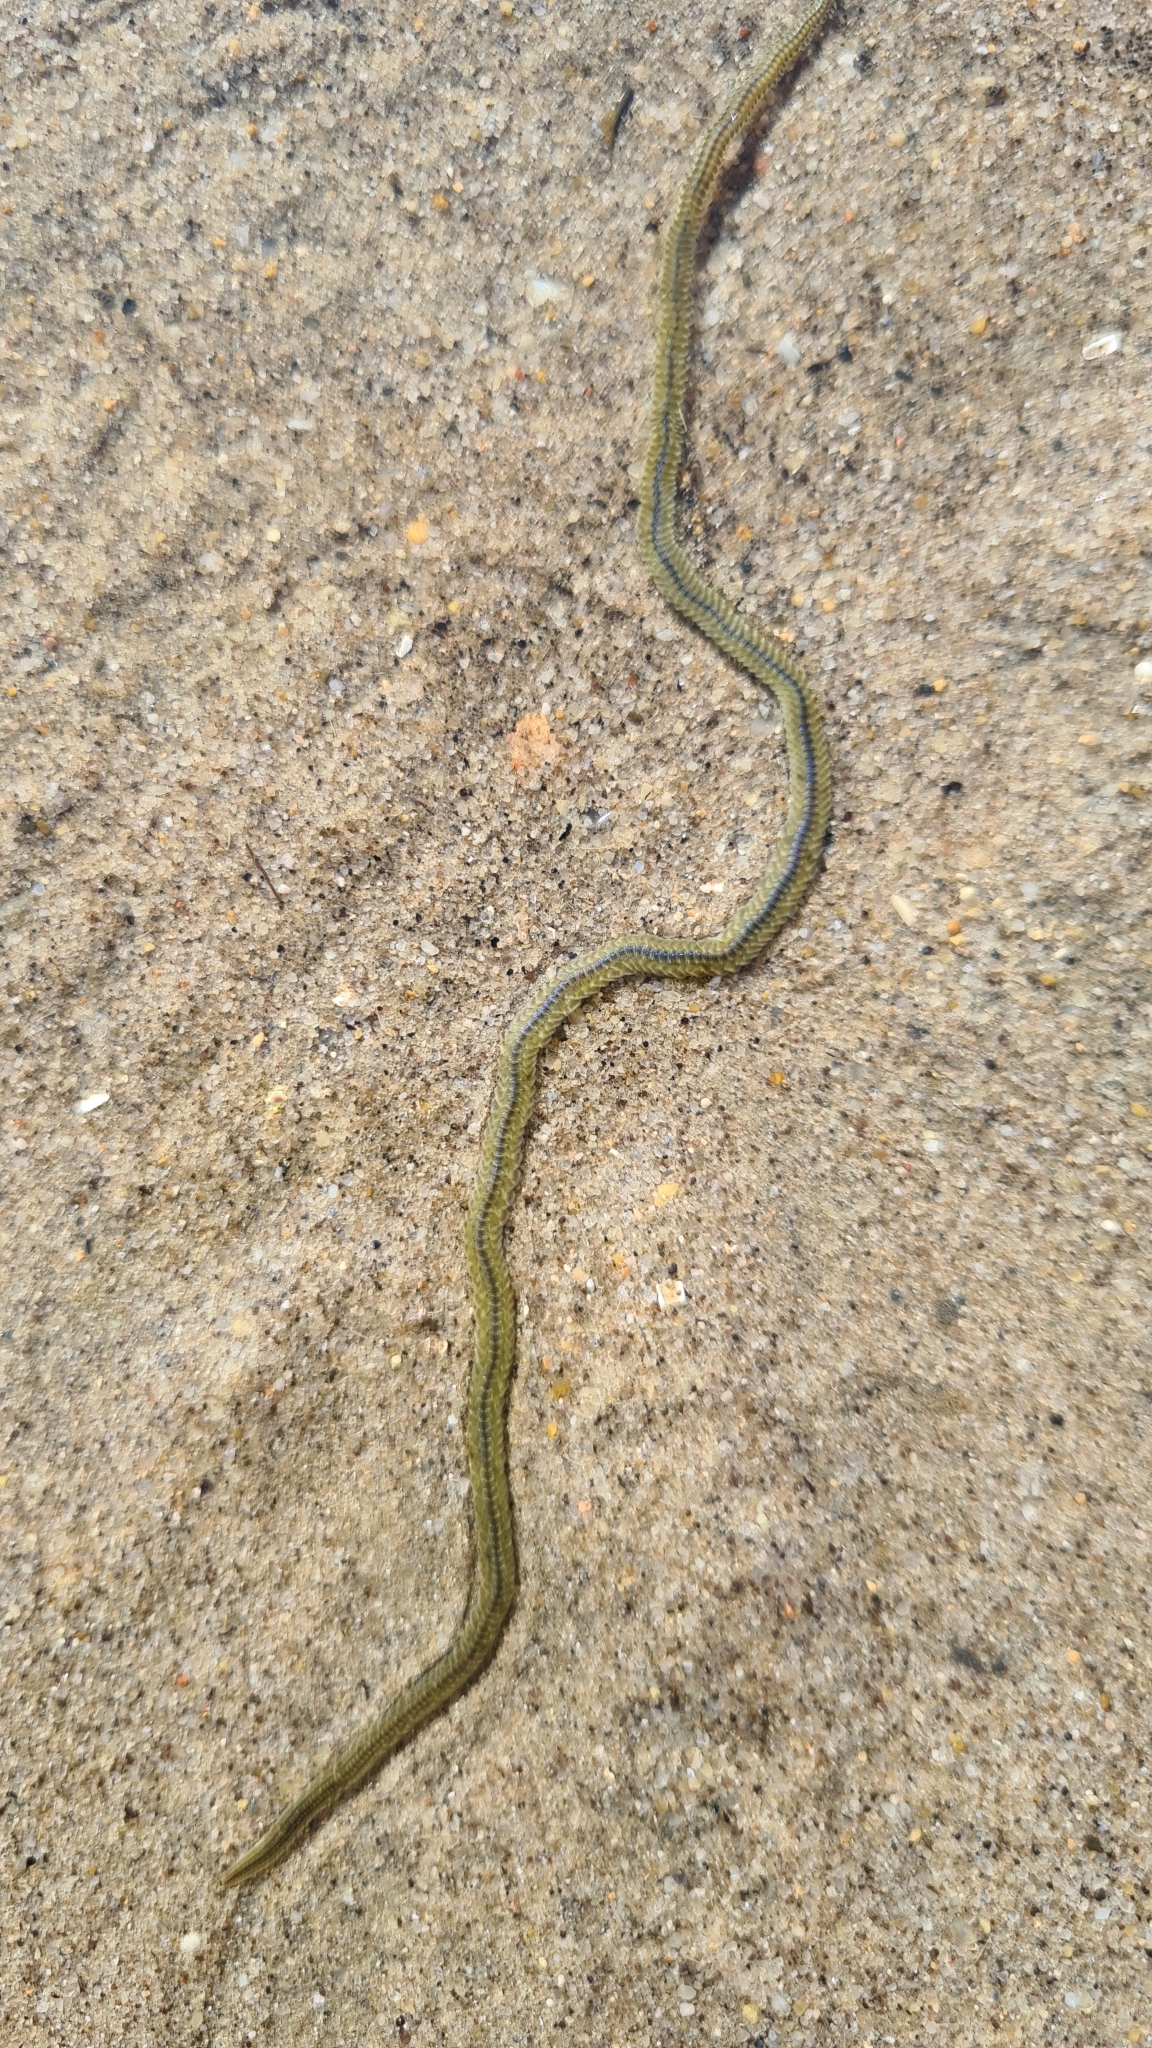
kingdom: Animalia
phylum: Annelida
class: Polychaeta
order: Phyllodocida
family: Phyllodocidae
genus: Phyllodoce
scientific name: Phyllodoce novaehollandiae
